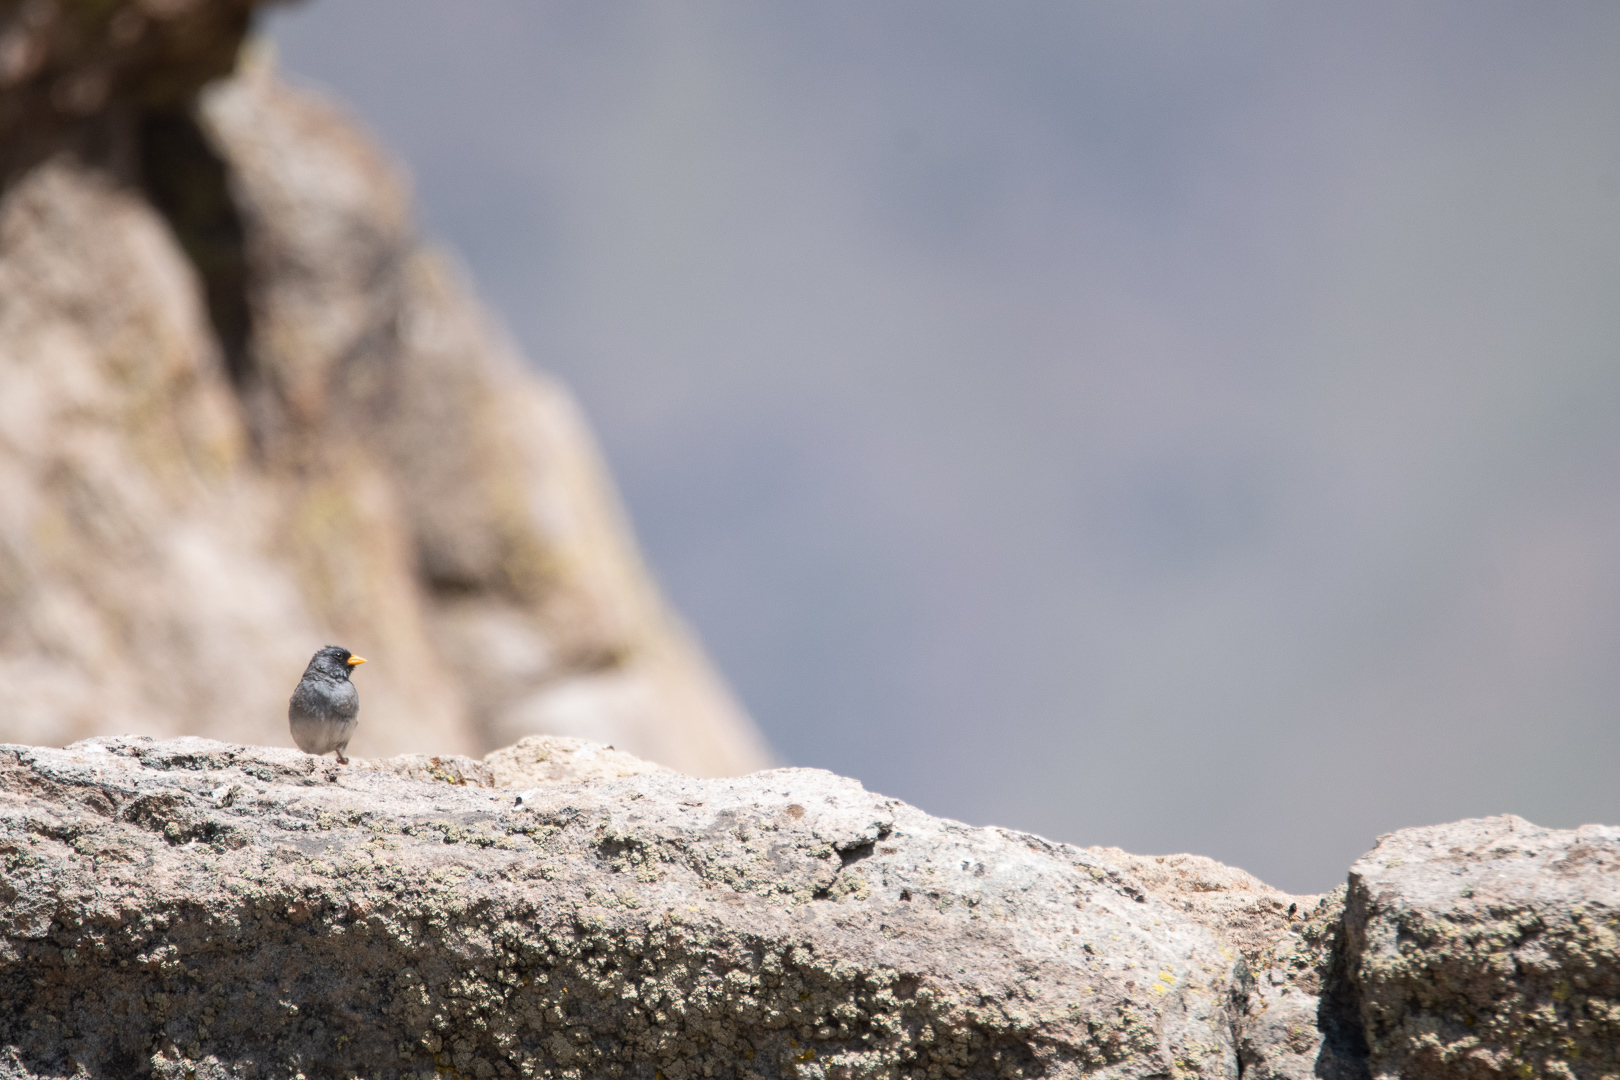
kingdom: Animalia
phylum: Chordata
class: Aves
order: Passeriformes
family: Thraupidae
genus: Porphyrospiza
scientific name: Porphyrospiza alaudina
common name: Band-tailed sierra finch
